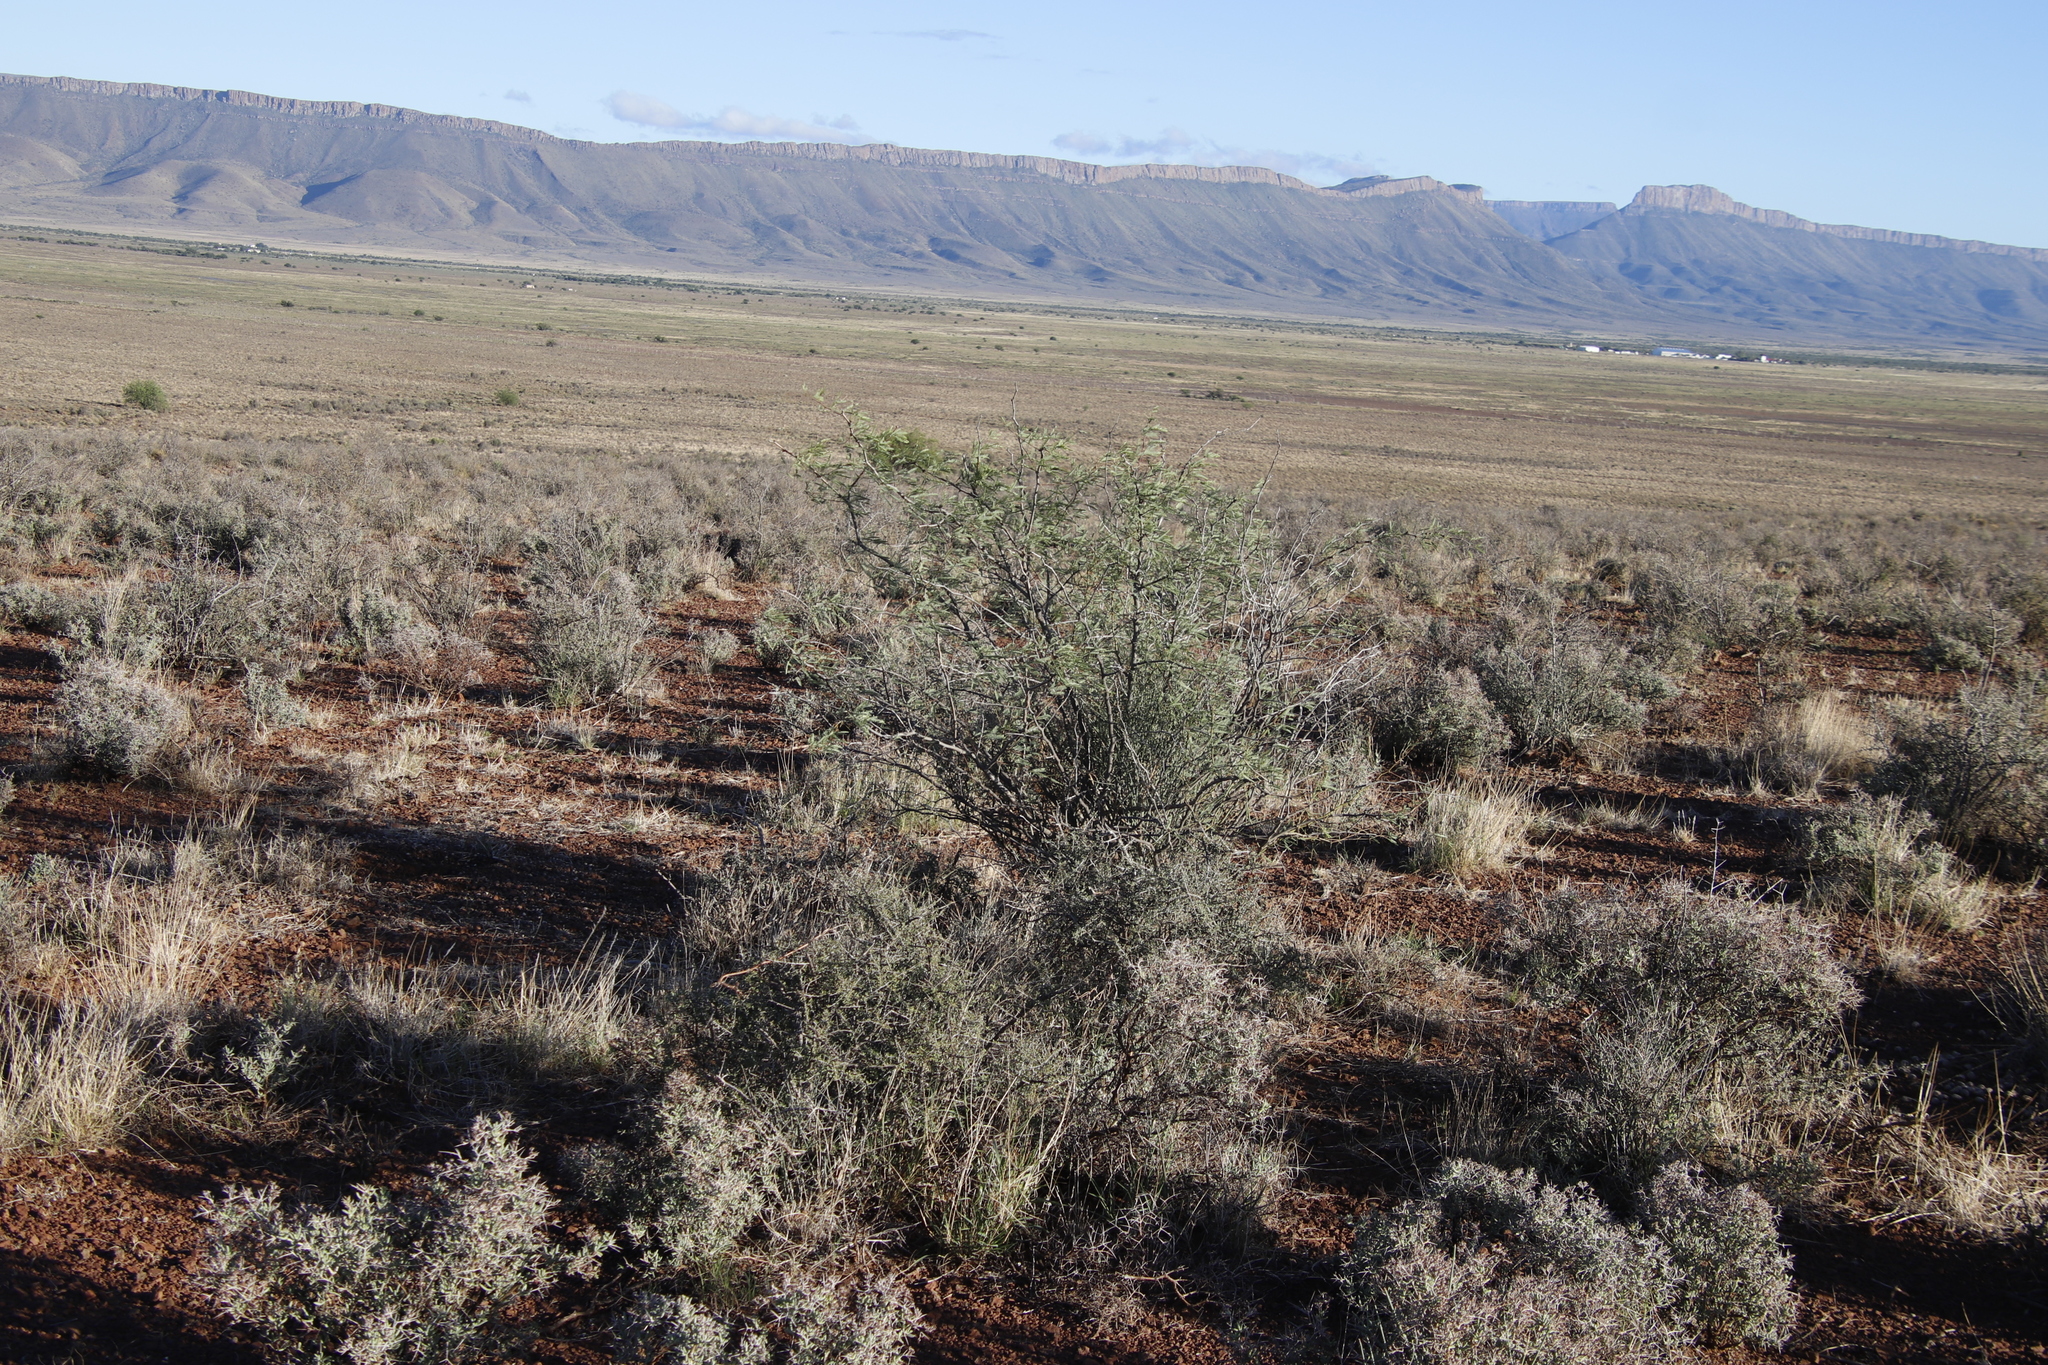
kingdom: Plantae
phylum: Tracheophyta
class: Magnoliopsida
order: Fabales
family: Fabaceae
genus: Prosopis
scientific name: Prosopis pubescens
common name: Screw-bean
